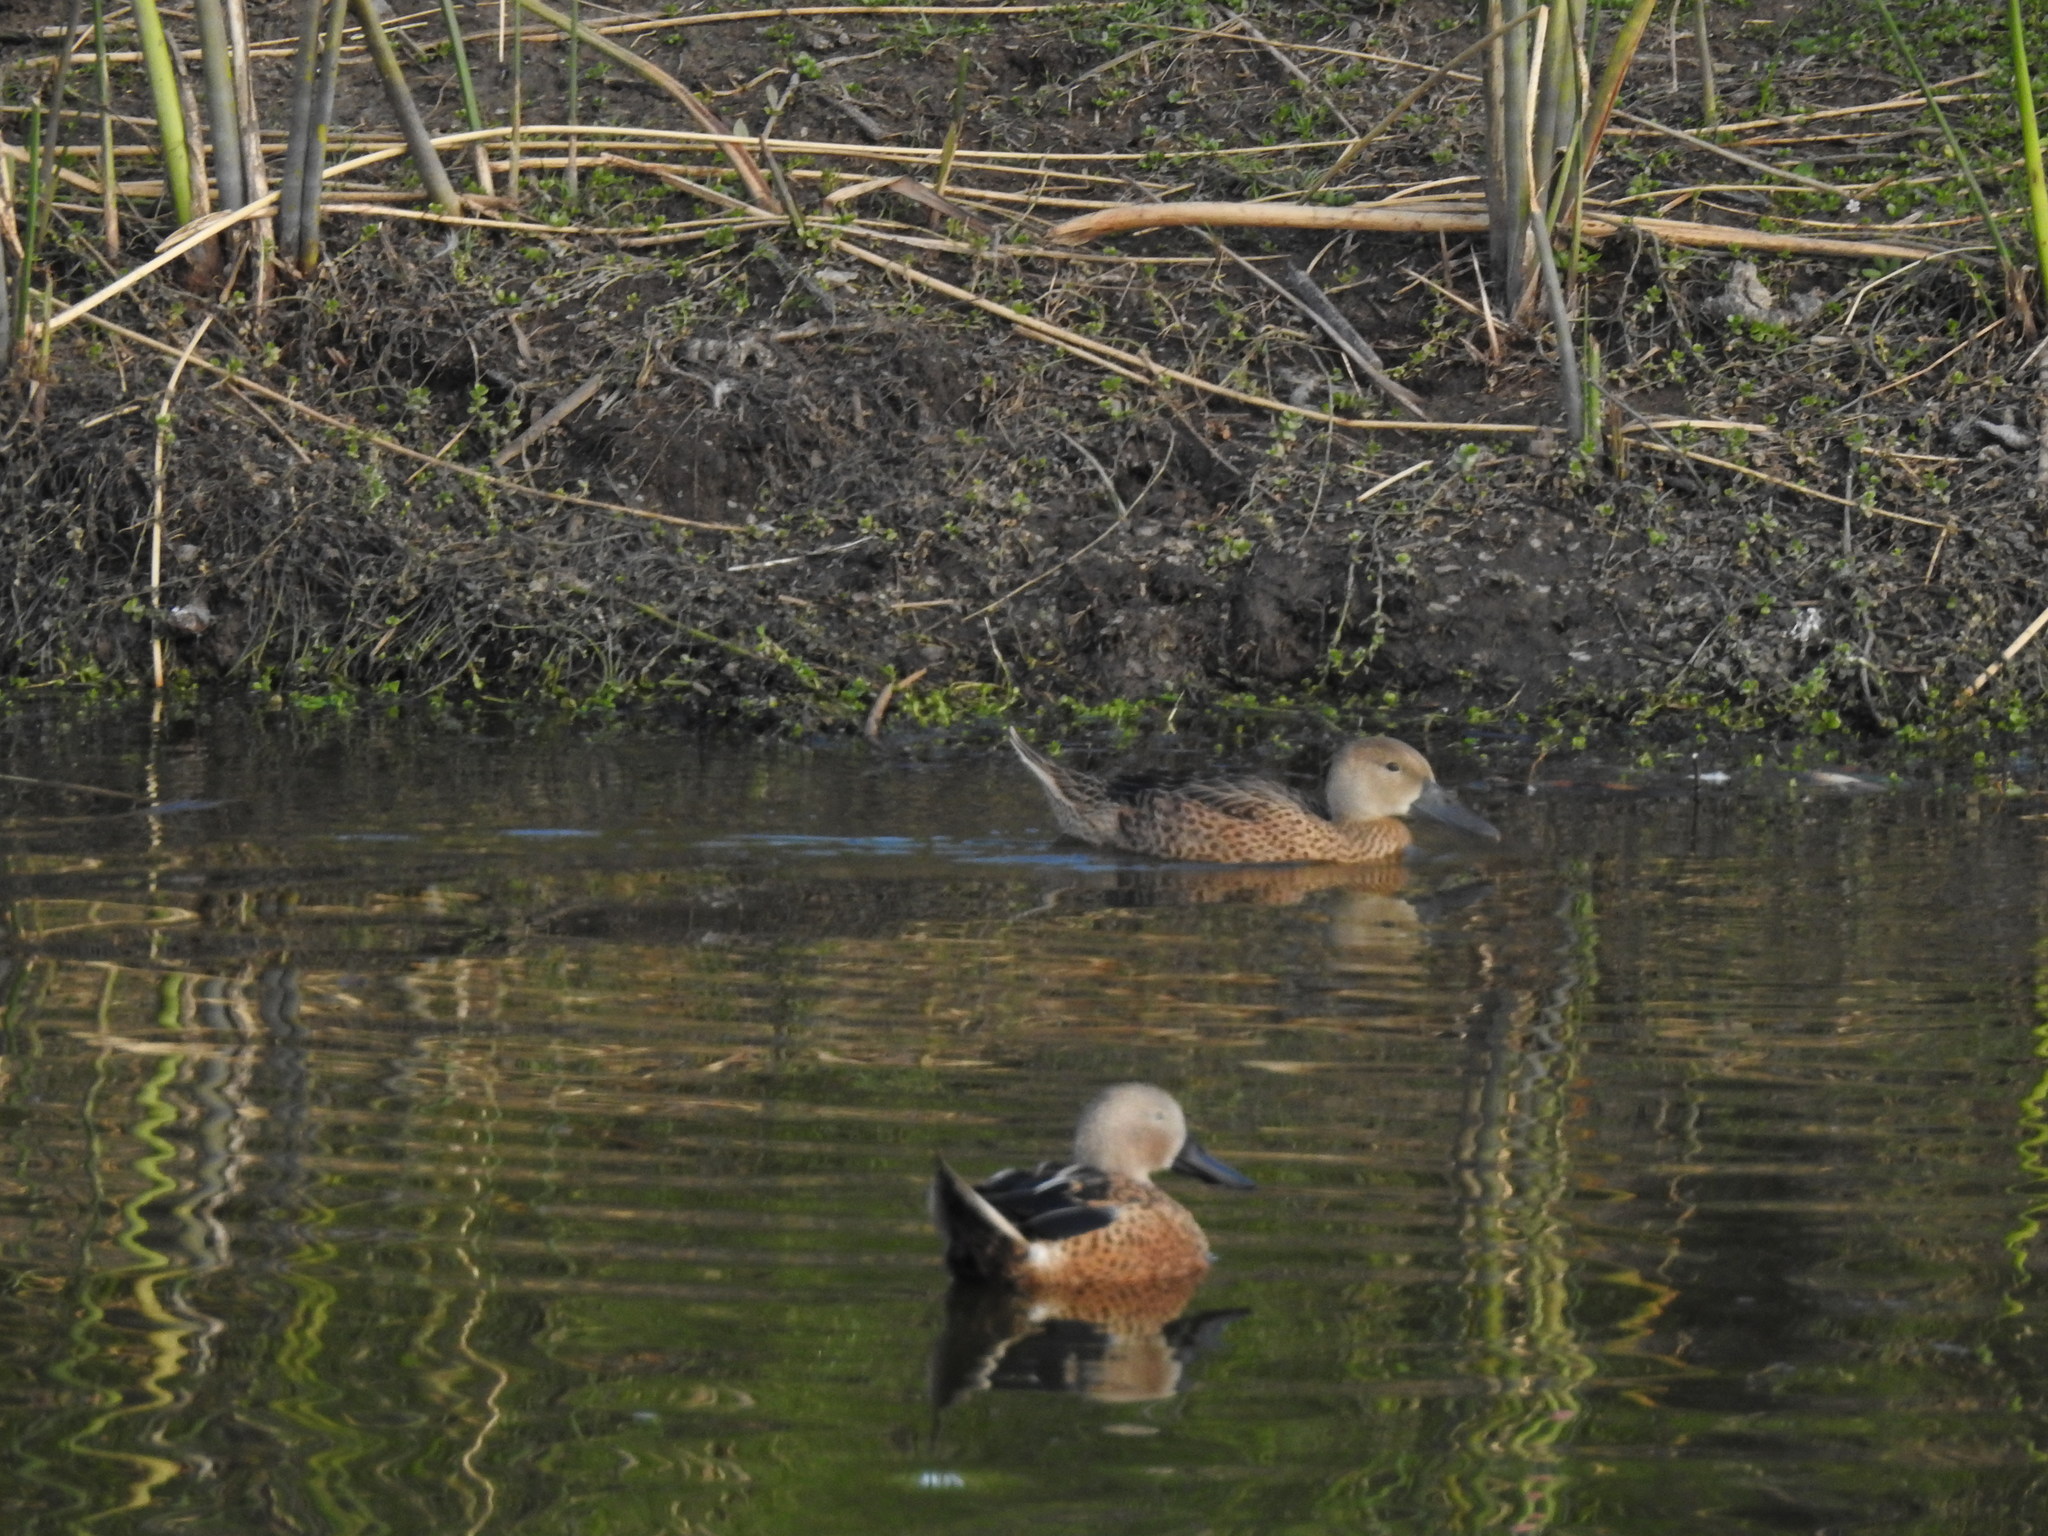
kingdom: Animalia
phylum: Chordata
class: Aves
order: Anseriformes
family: Anatidae
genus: Spatula
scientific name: Spatula platalea
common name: Red shoveler
